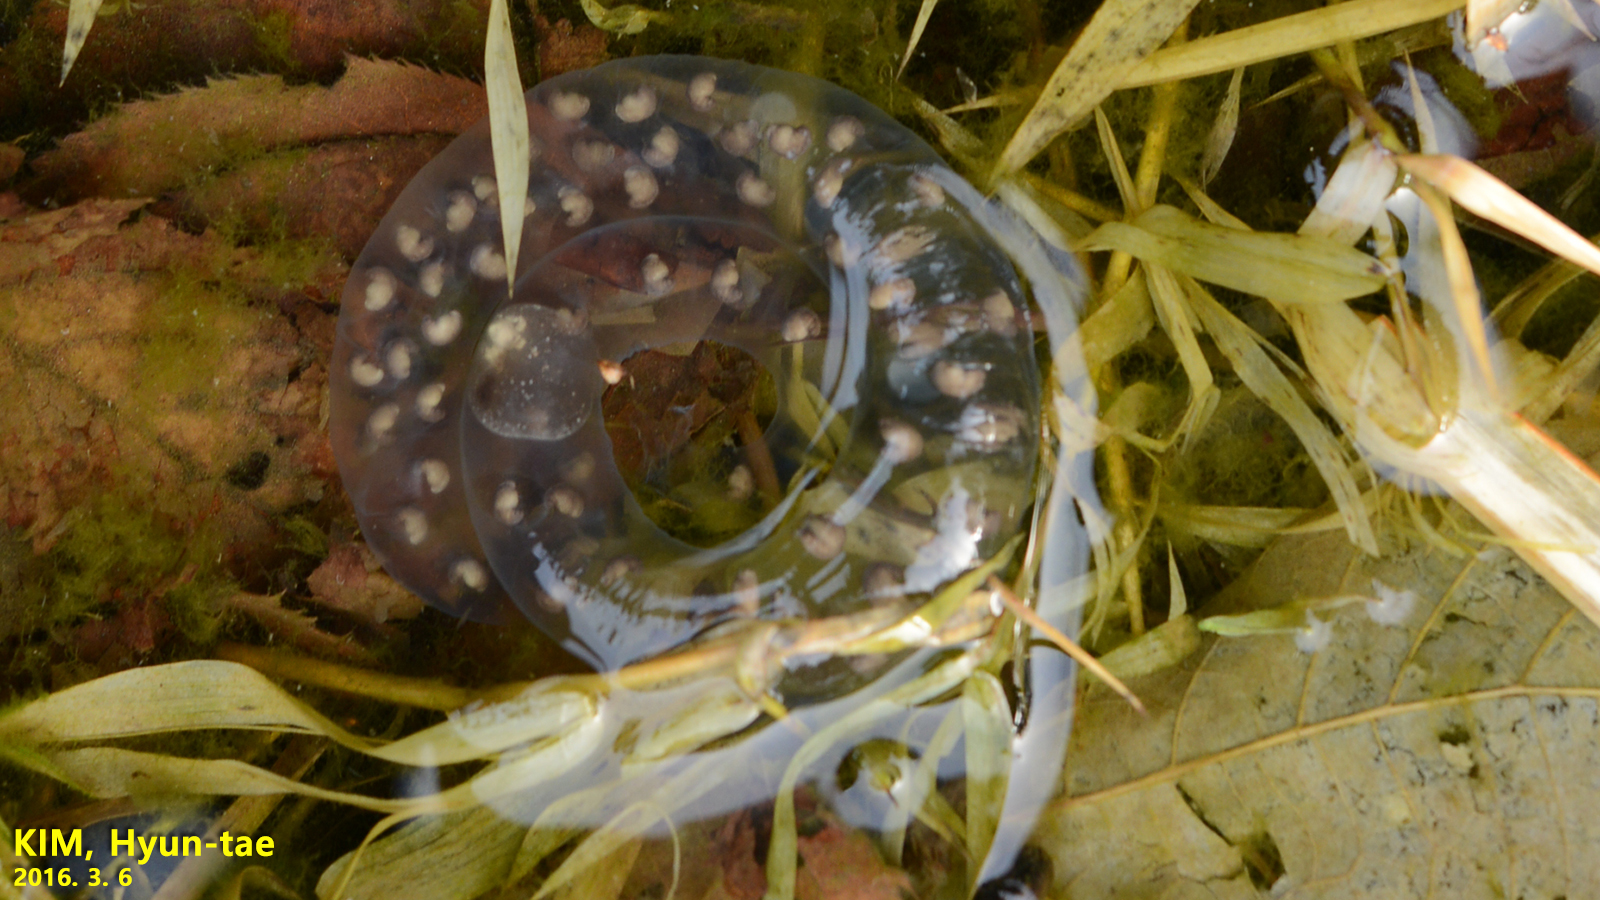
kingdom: Animalia
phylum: Chordata
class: Amphibia
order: Caudata
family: Hynobiidae
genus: Hynobius
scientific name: Hynobius leechii
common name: Gensan salamander
